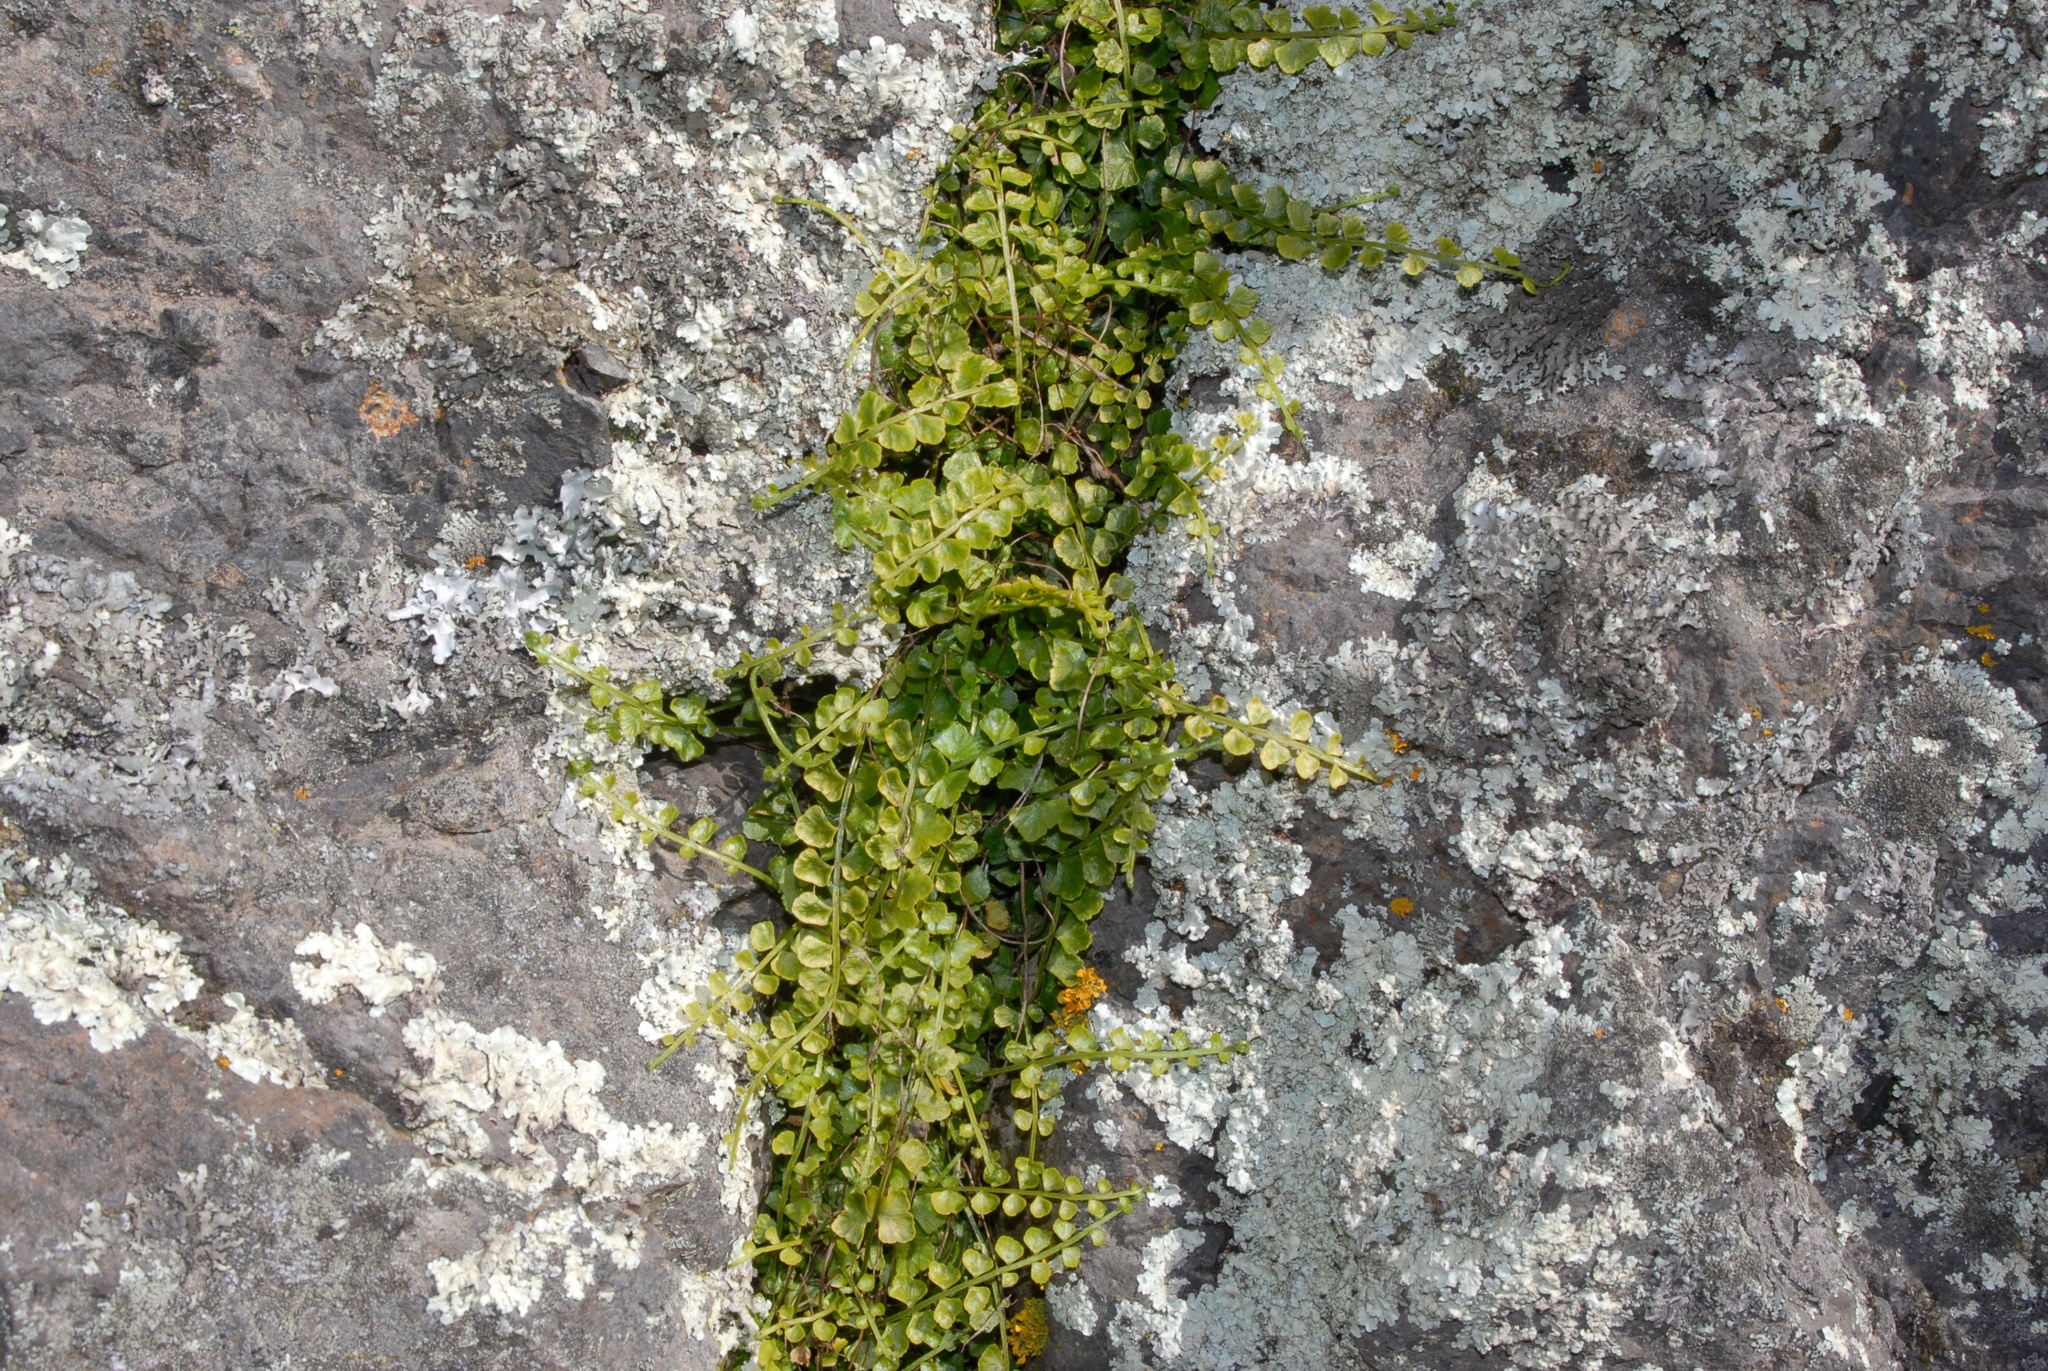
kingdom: Plantae
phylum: Tracheophyta
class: Polypodiopsida
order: Polypodiales
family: Aspleniaceae
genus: Asplenium
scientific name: Asplenium flabellifolium
